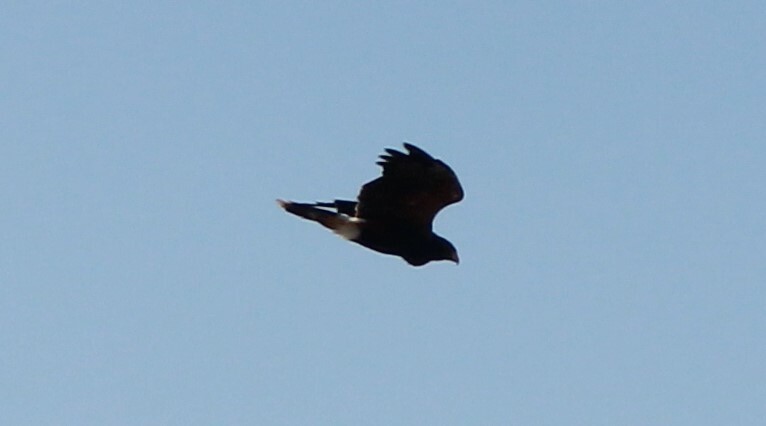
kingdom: Animalia
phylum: Chordata
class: Aves
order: Accipitriformes
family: Accipitridae
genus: Parabuteo
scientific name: Parabuteo unicinctus
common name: Harris's hawk
